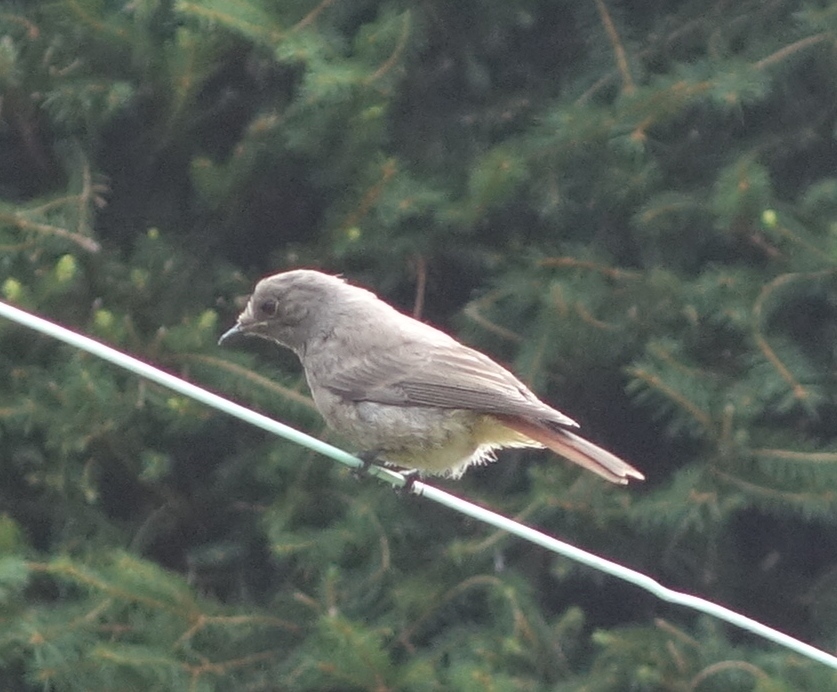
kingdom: Animalia
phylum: Chordata
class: Aves
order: Passeriformes
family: Muscicapidae
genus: Phoenicurus
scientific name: Phoenicurus ochruros
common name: Black redstart
